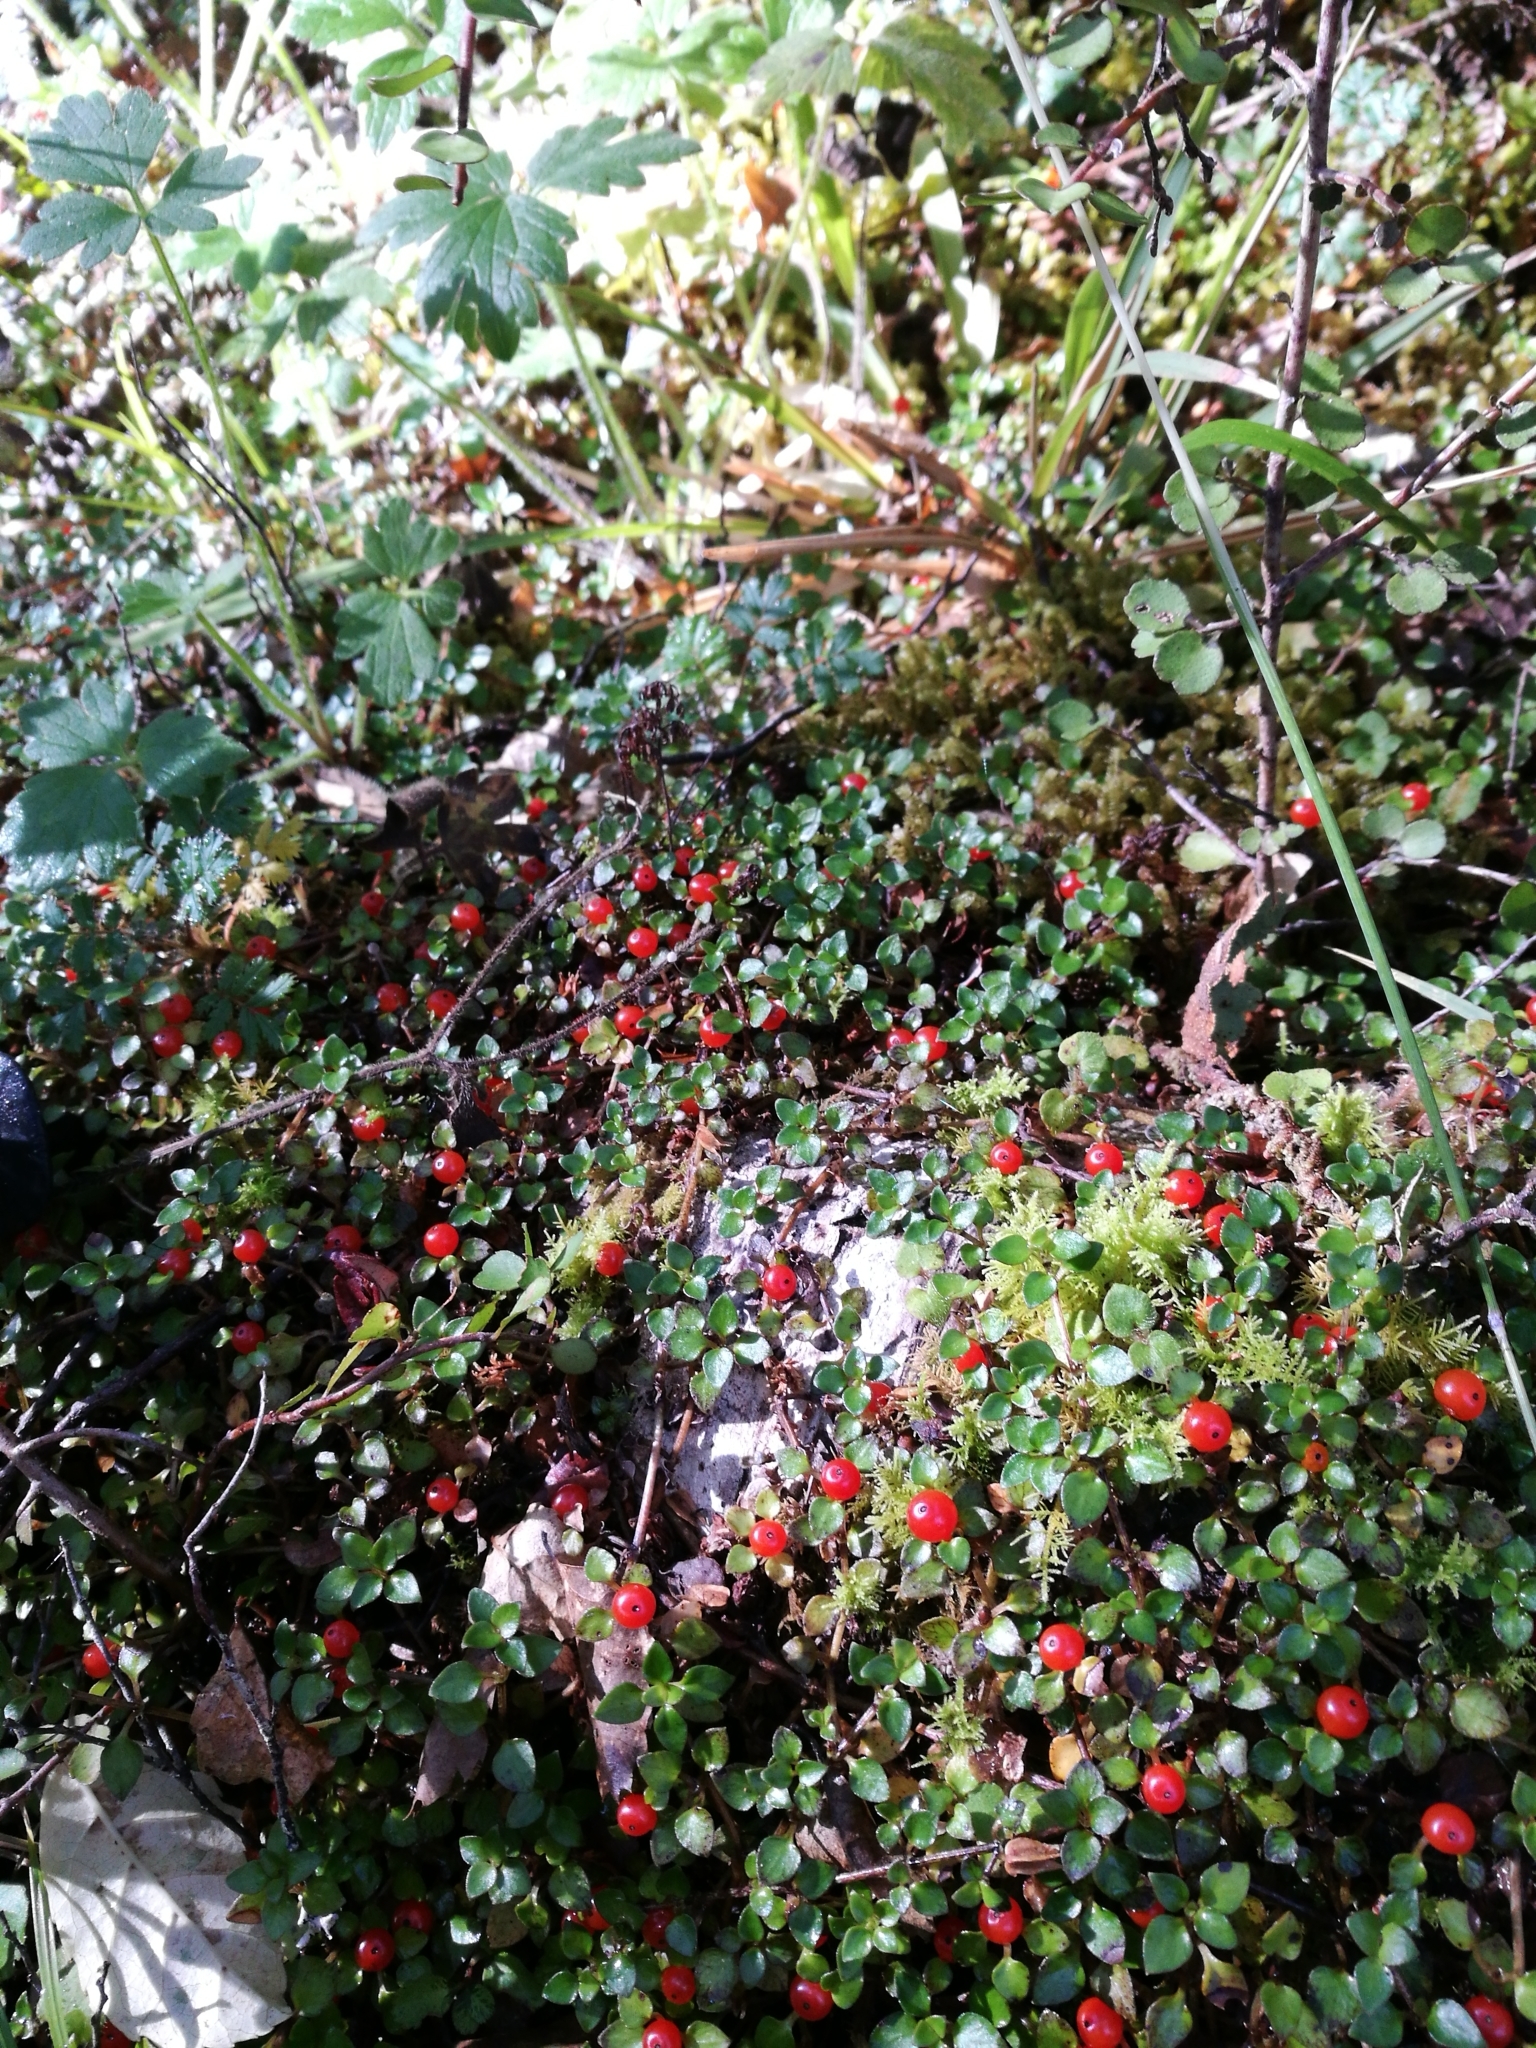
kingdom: Plantae
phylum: Tracheophyta
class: Magnoliopsida
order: Gentianales
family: Rubiaceae
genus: Nertera
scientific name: Nertera granadensis
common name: Beadplant
